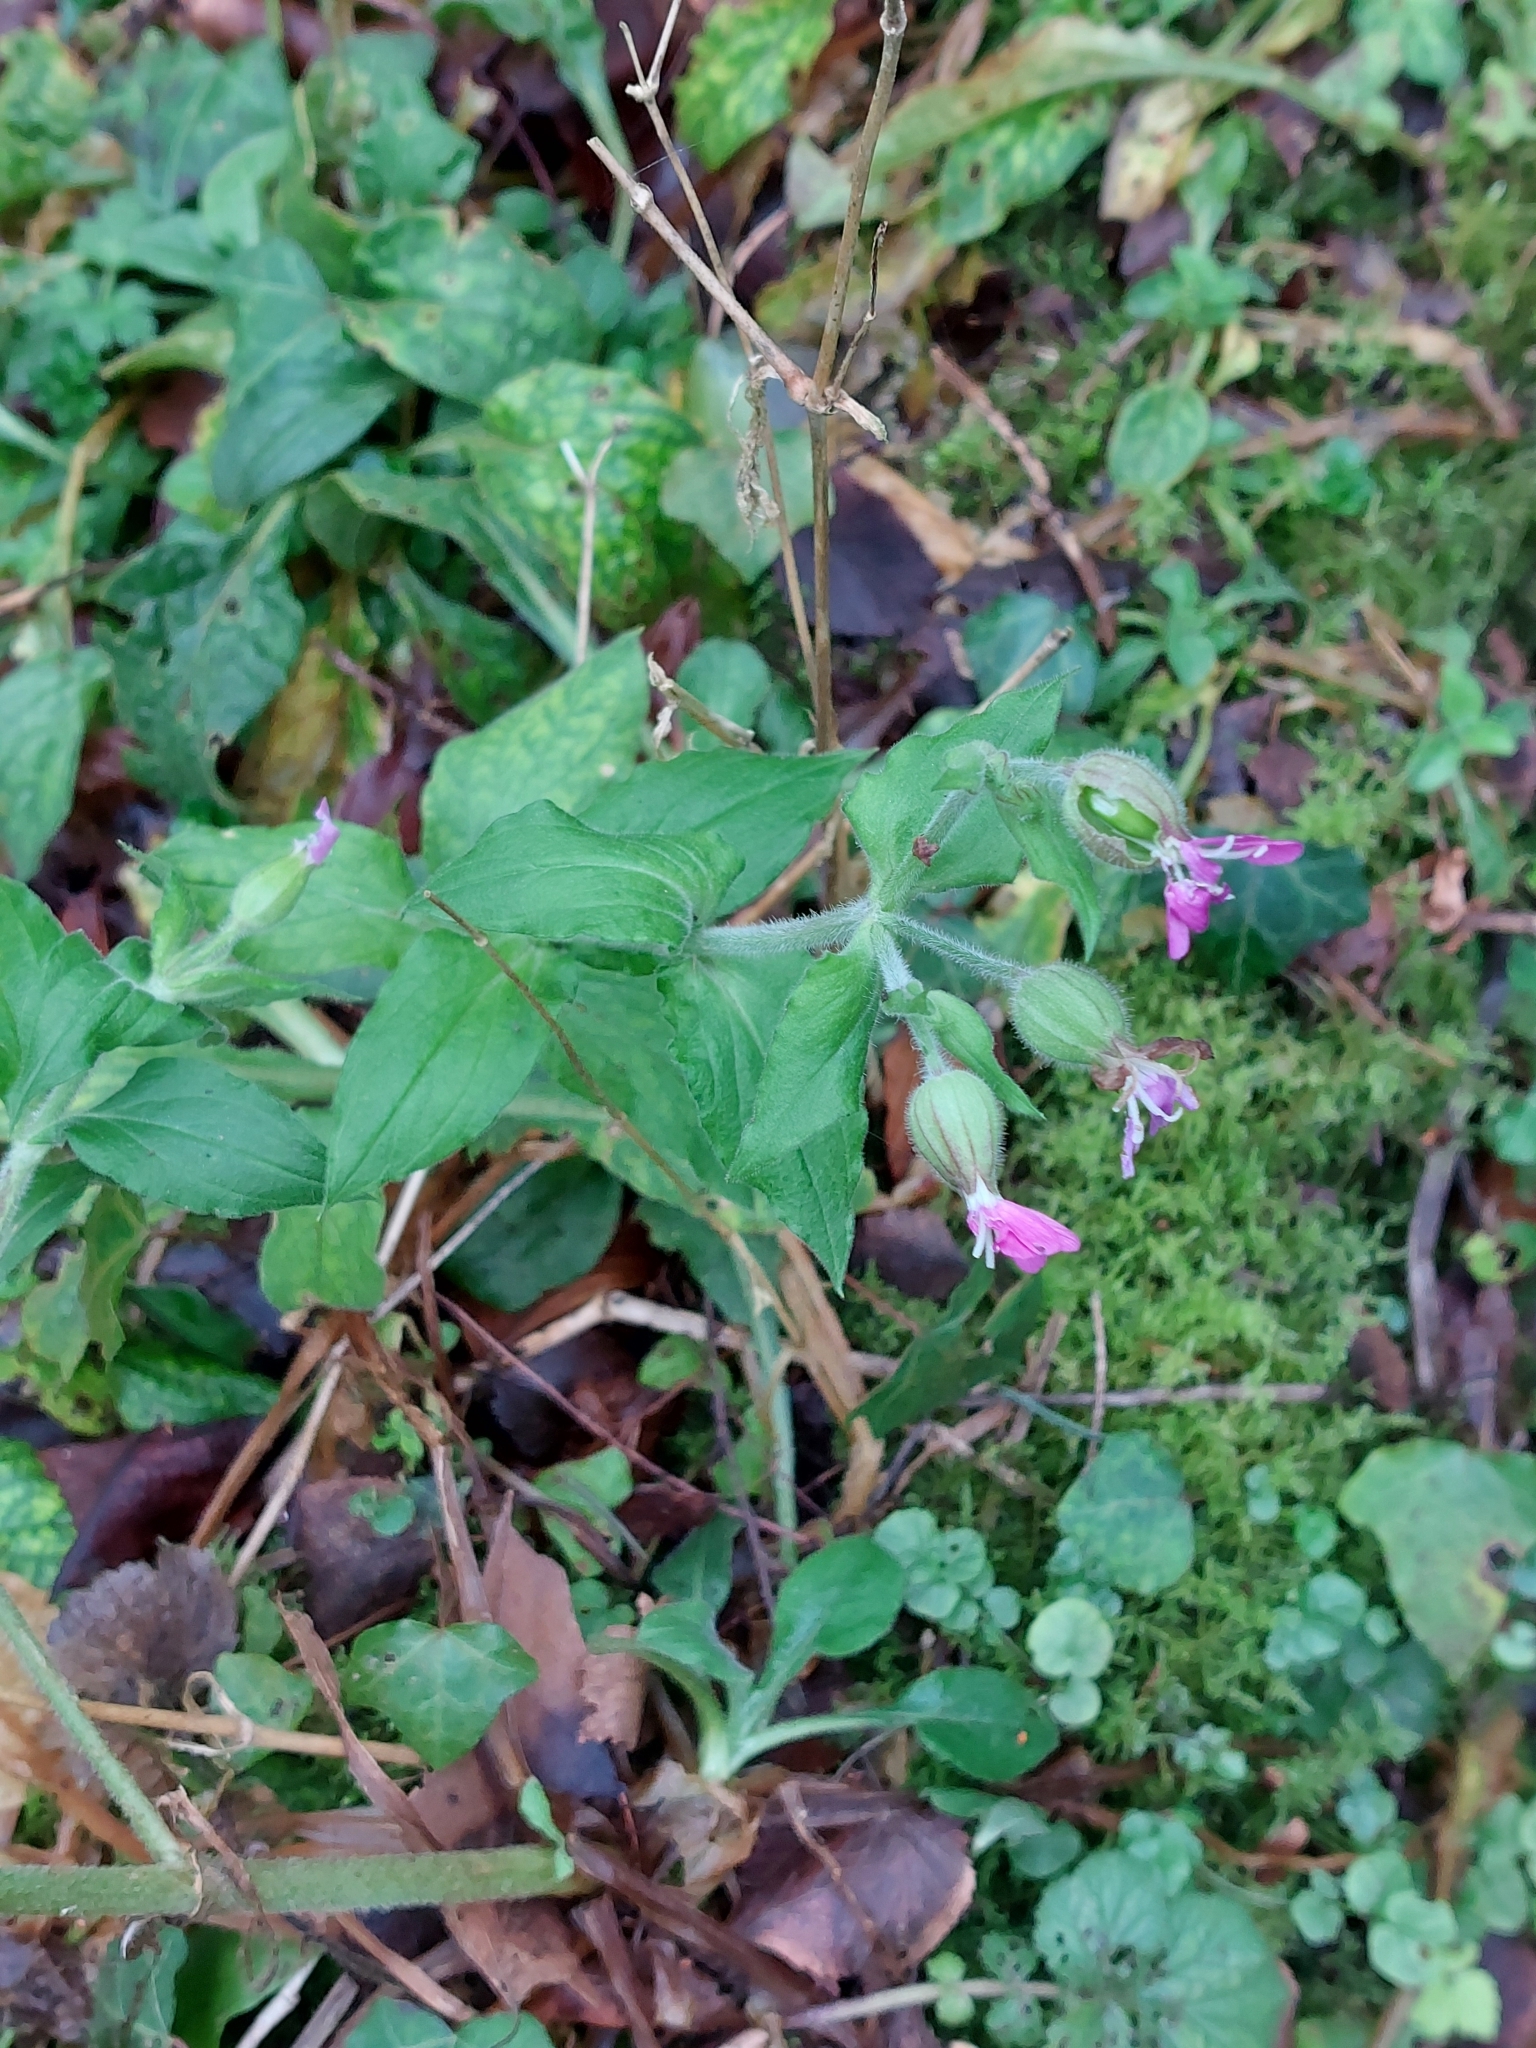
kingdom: Plantae
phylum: Tracheophyta
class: Magnoliopsida
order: Caryophyllales
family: Caryophyllaceae
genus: Silene
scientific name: Silene dioica
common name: Red campion
